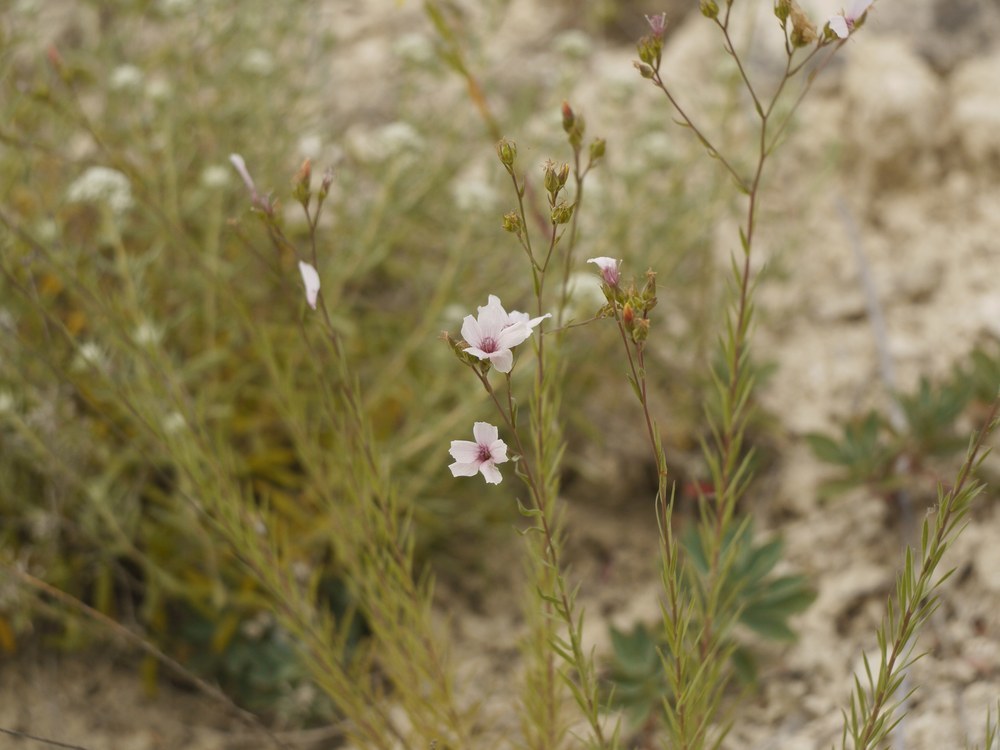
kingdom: Plantae
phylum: Tracheophyta
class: Magnoliopsida
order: Malpighiales
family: Linaceae
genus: Linum
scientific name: Linum tenuifolium
